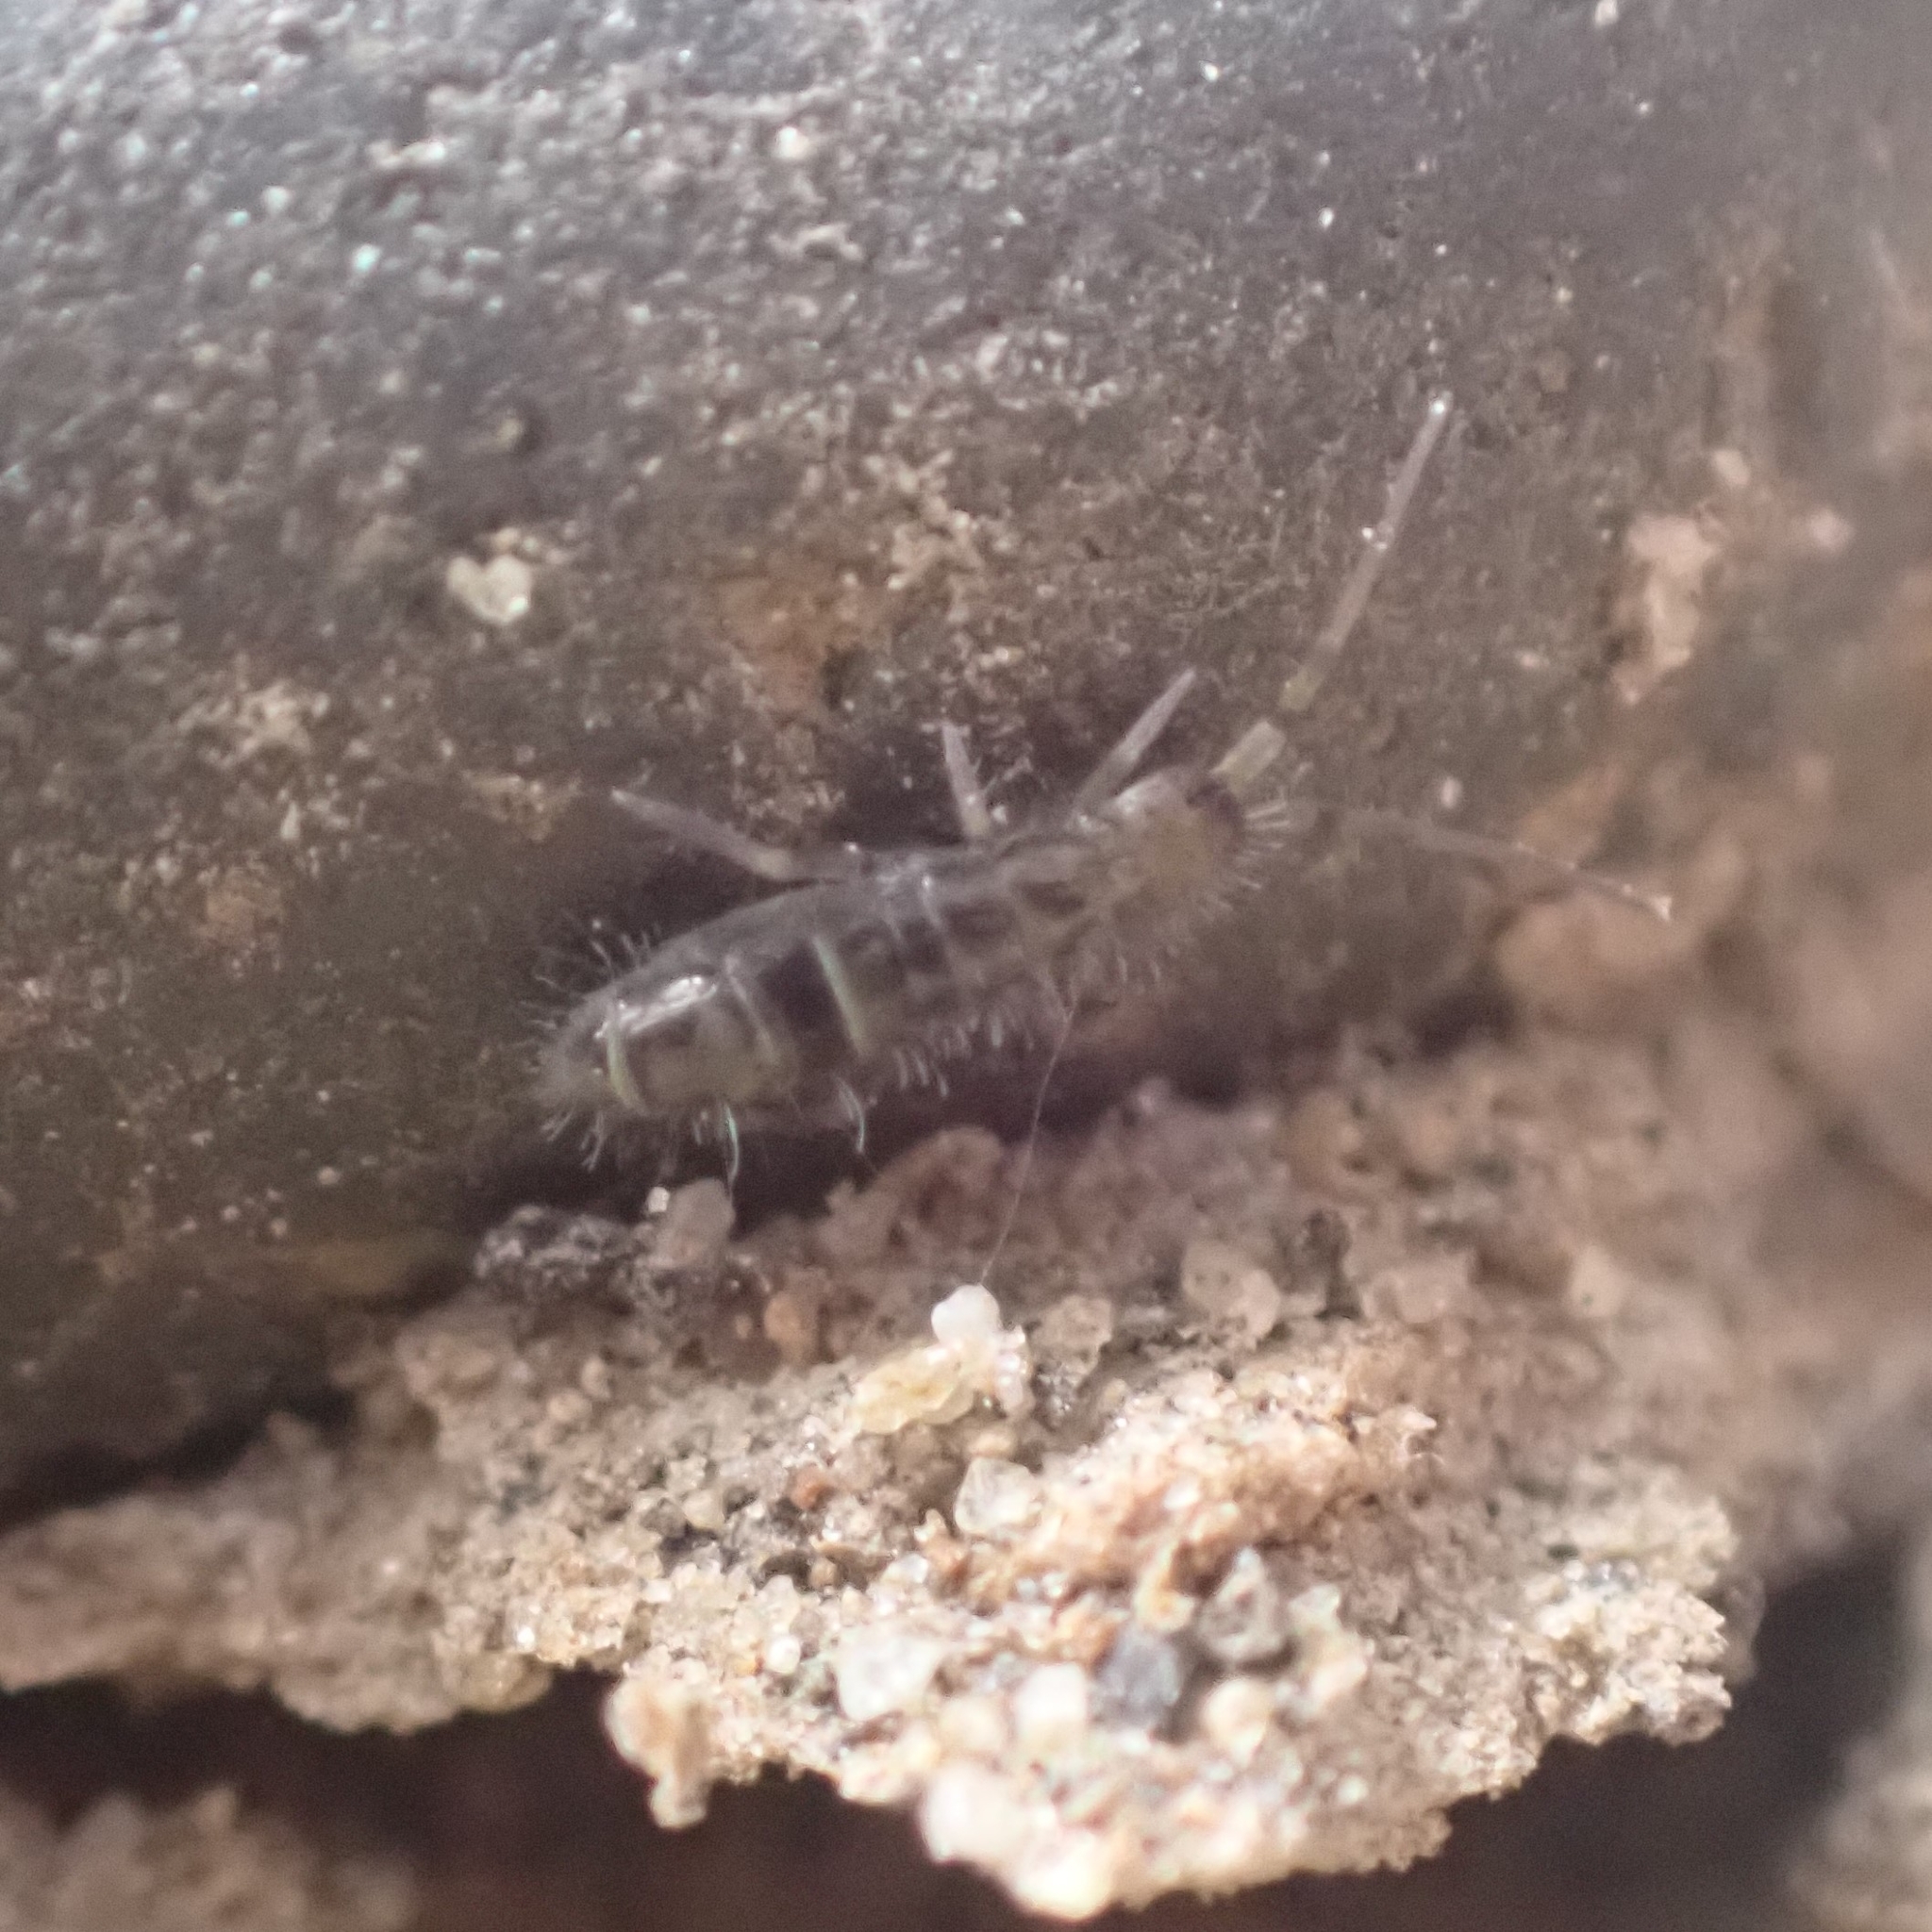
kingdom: Animalia
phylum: Arthropoda
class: Collembola
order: Entomobryomorpha
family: Orchesellidae
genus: Orchesella
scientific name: Orchesella cincta
